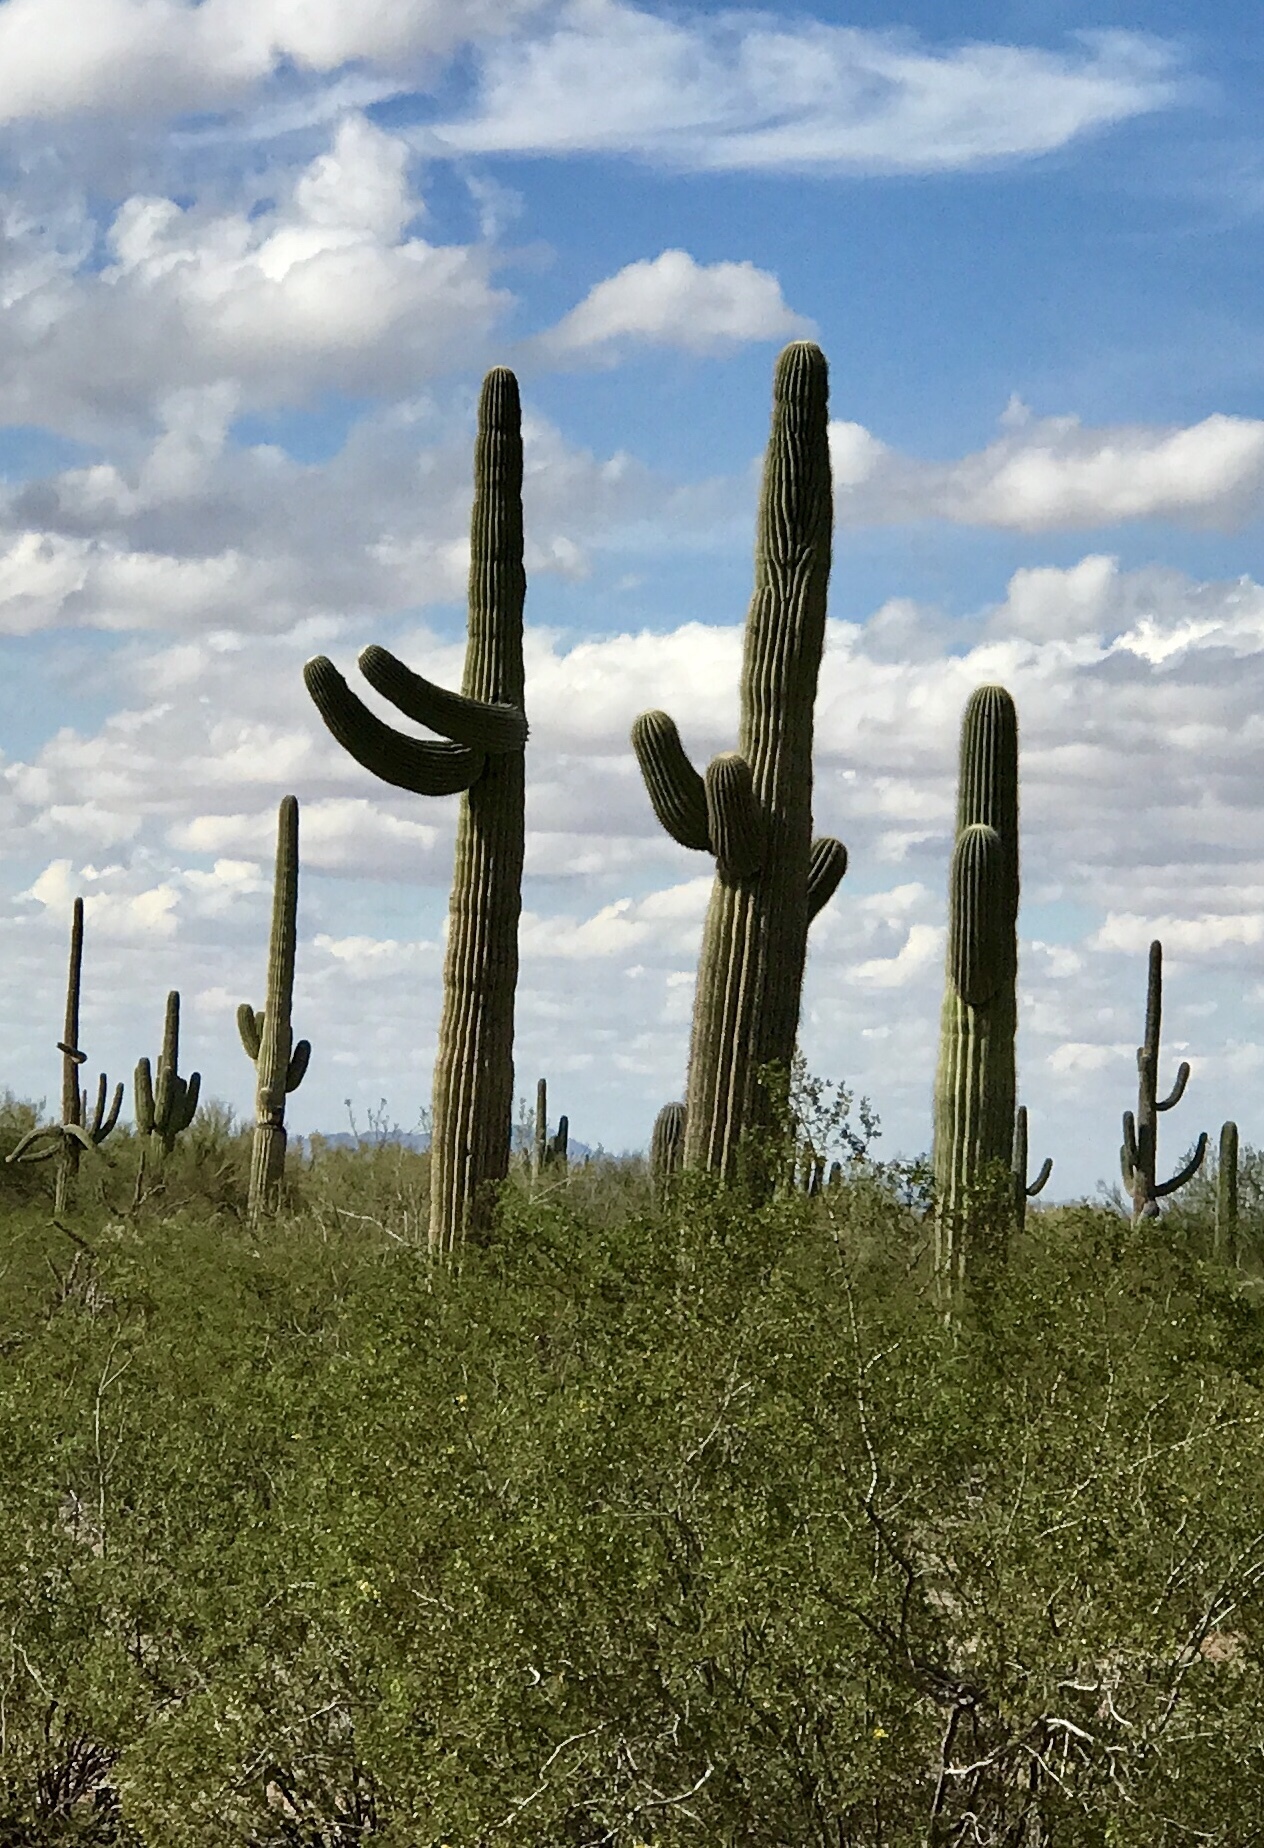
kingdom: Plantae
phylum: Tracheophyta
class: Magnoliopsida
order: Caryophyllales
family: Cactaceae
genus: Carnegiea
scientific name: Carnegiea gigantea
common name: Saguaro
